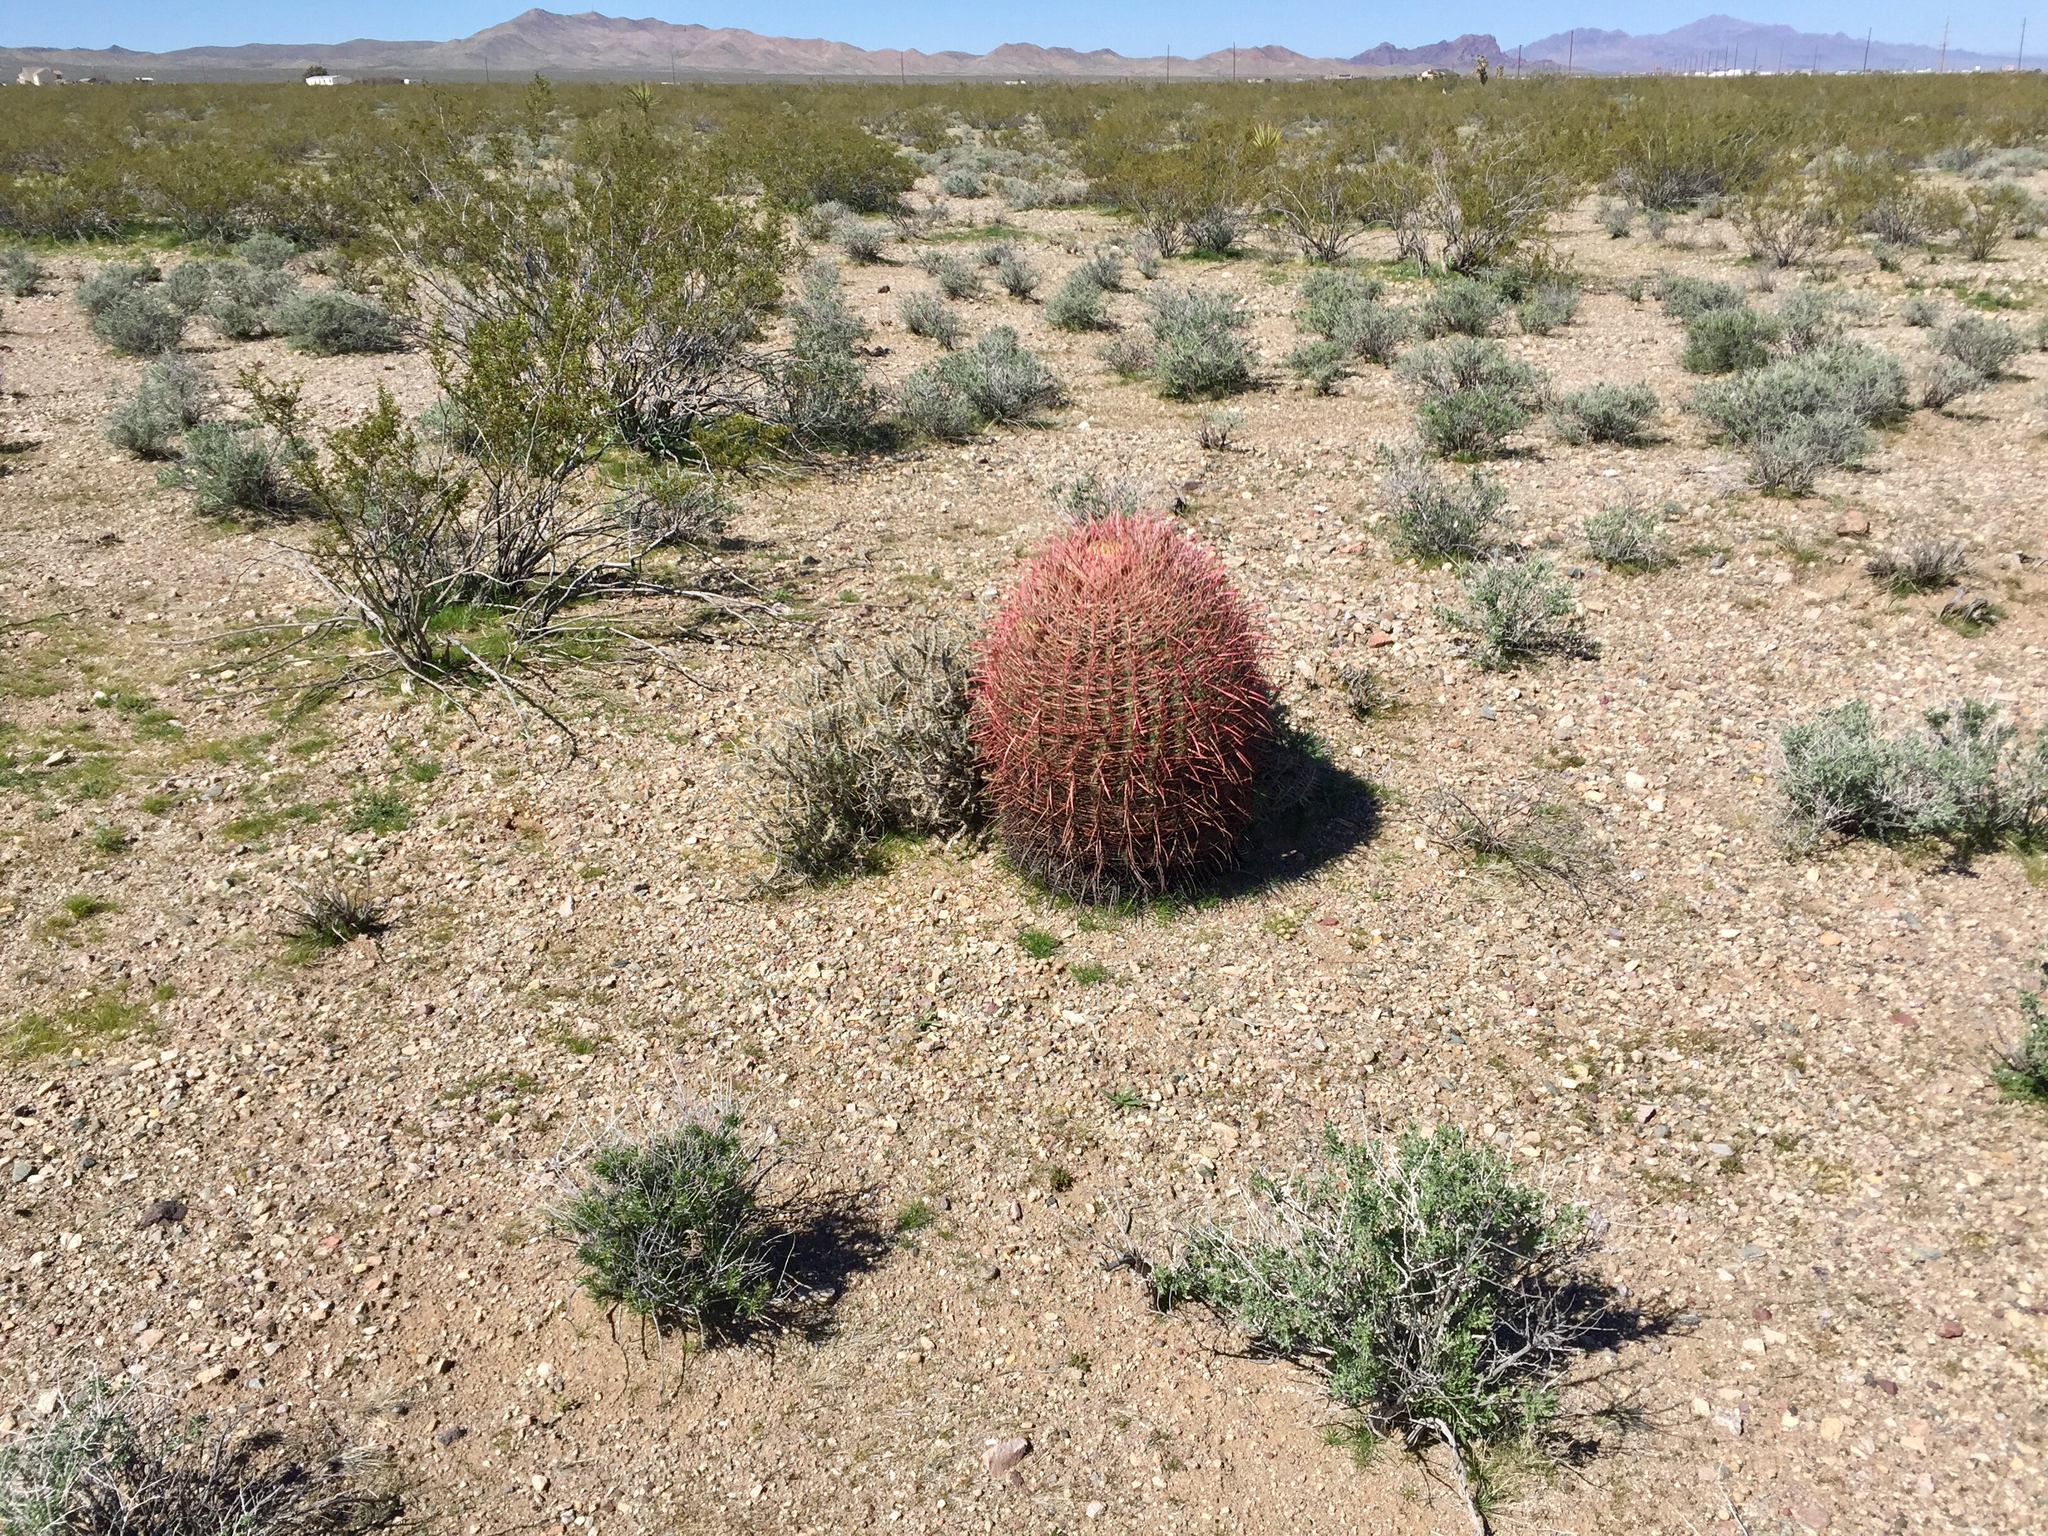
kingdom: Plantae
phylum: Tracheophyta
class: Magnoliopsida
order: Caryophyllales
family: Cactaceae
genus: Ferocactus
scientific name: Ferocactus cylindraceus
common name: California barrel cactus
